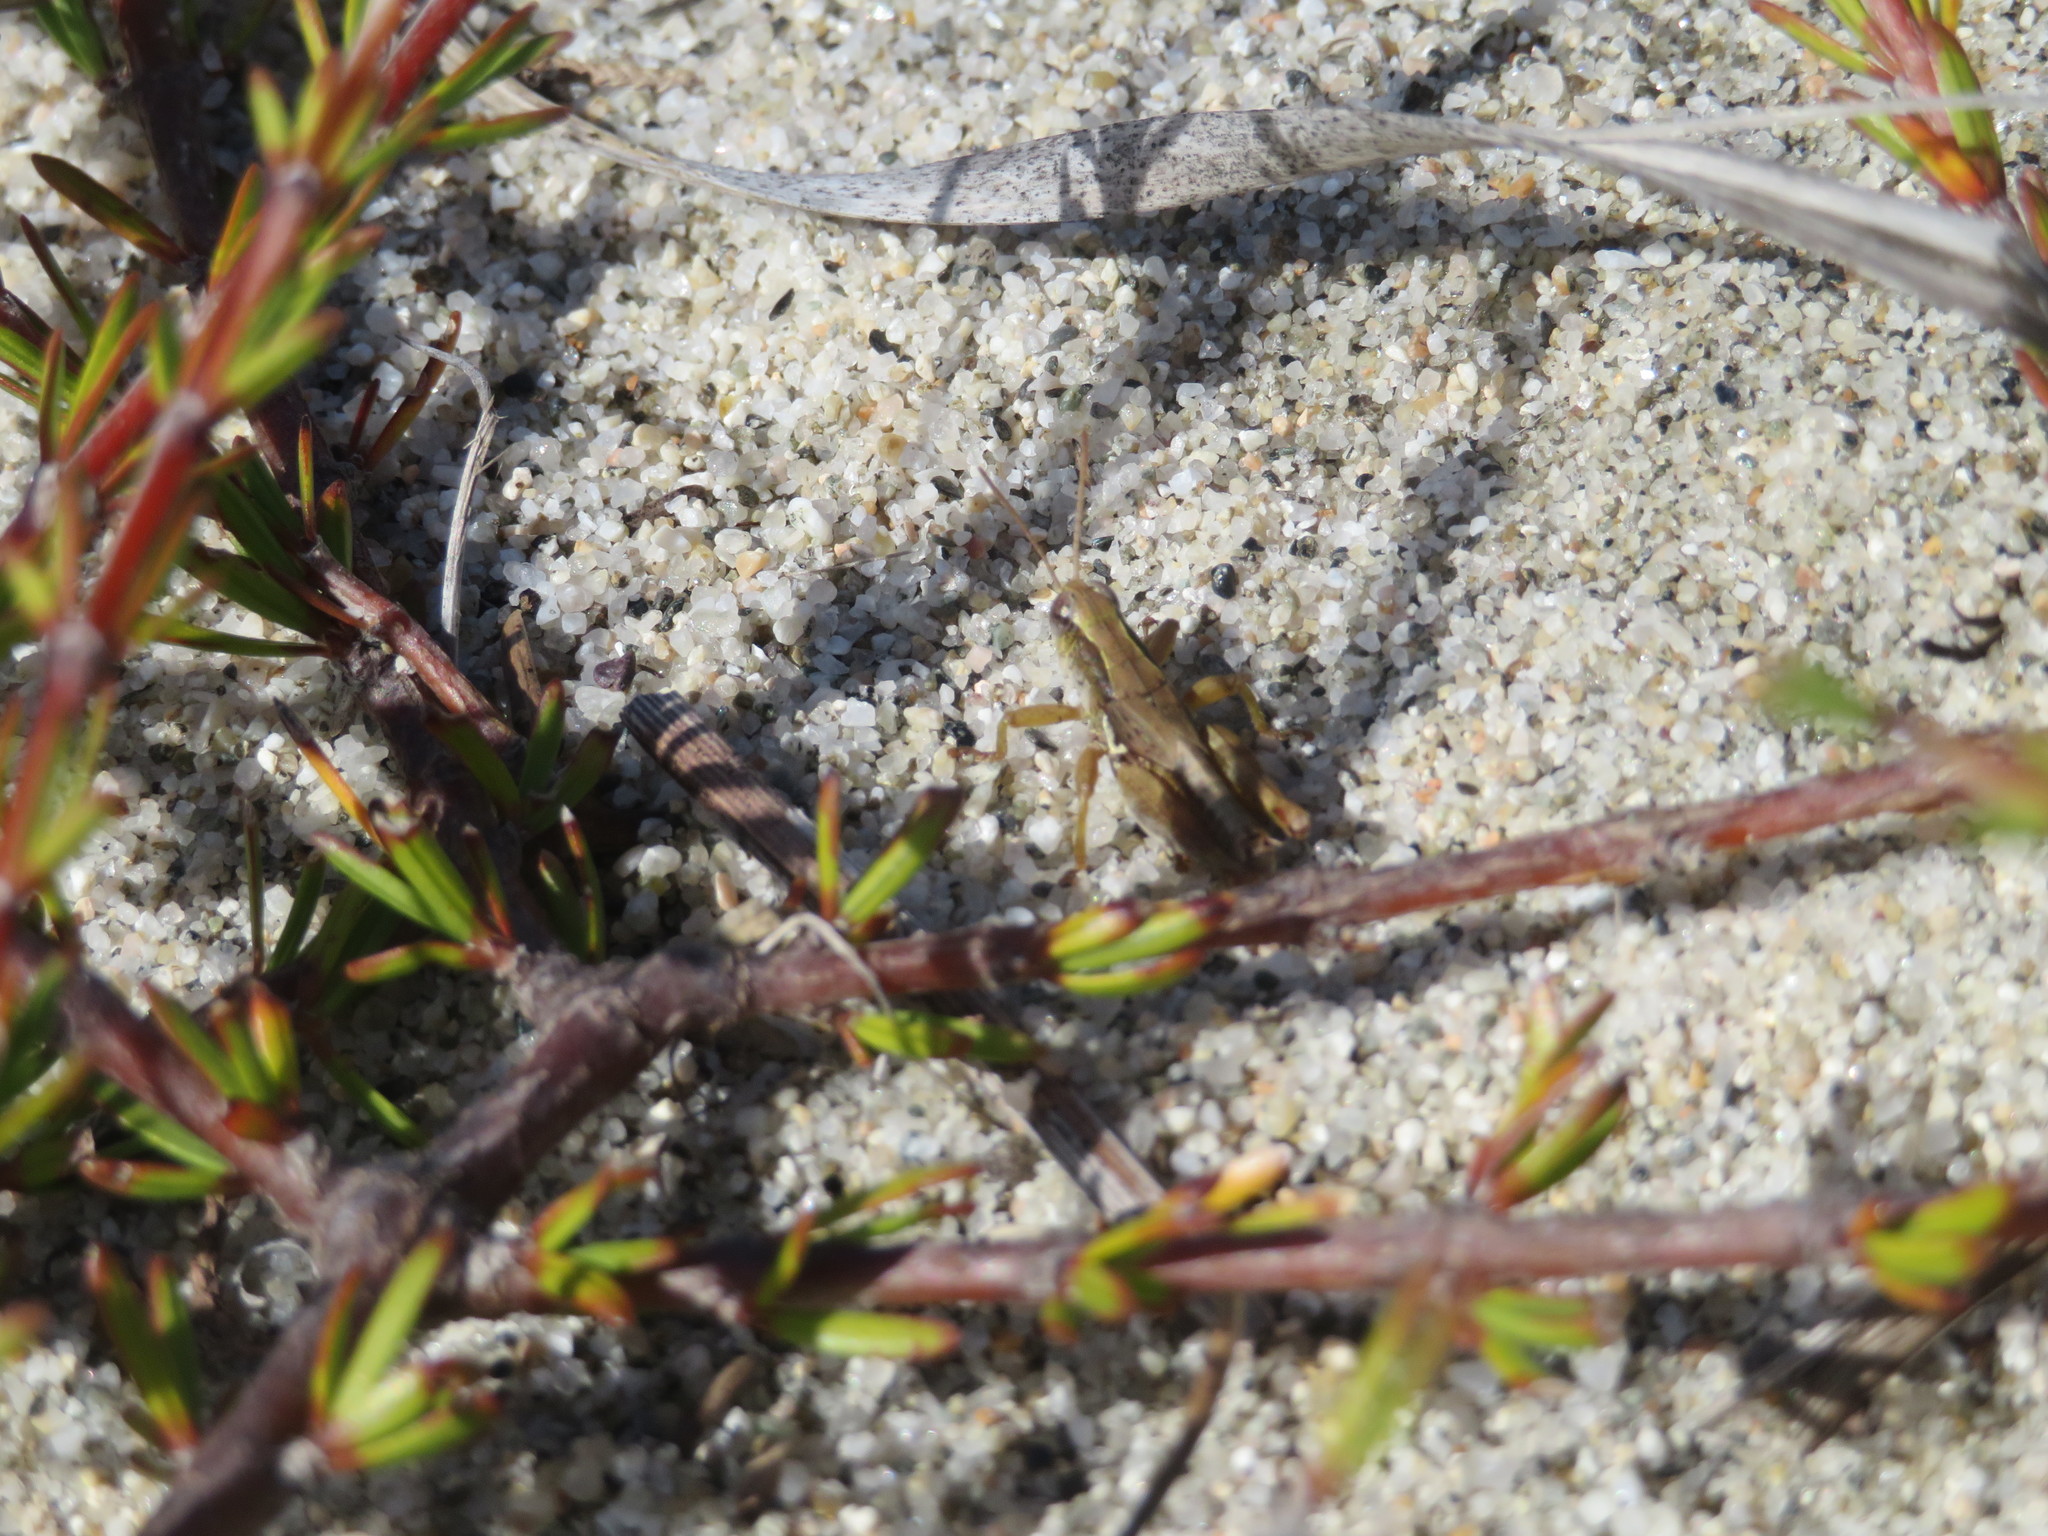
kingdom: Animalia
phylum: Arthropoda
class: Insecta
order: Orthoptera
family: Acrididae
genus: Phaulacridium
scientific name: Phaulacridium marginale
